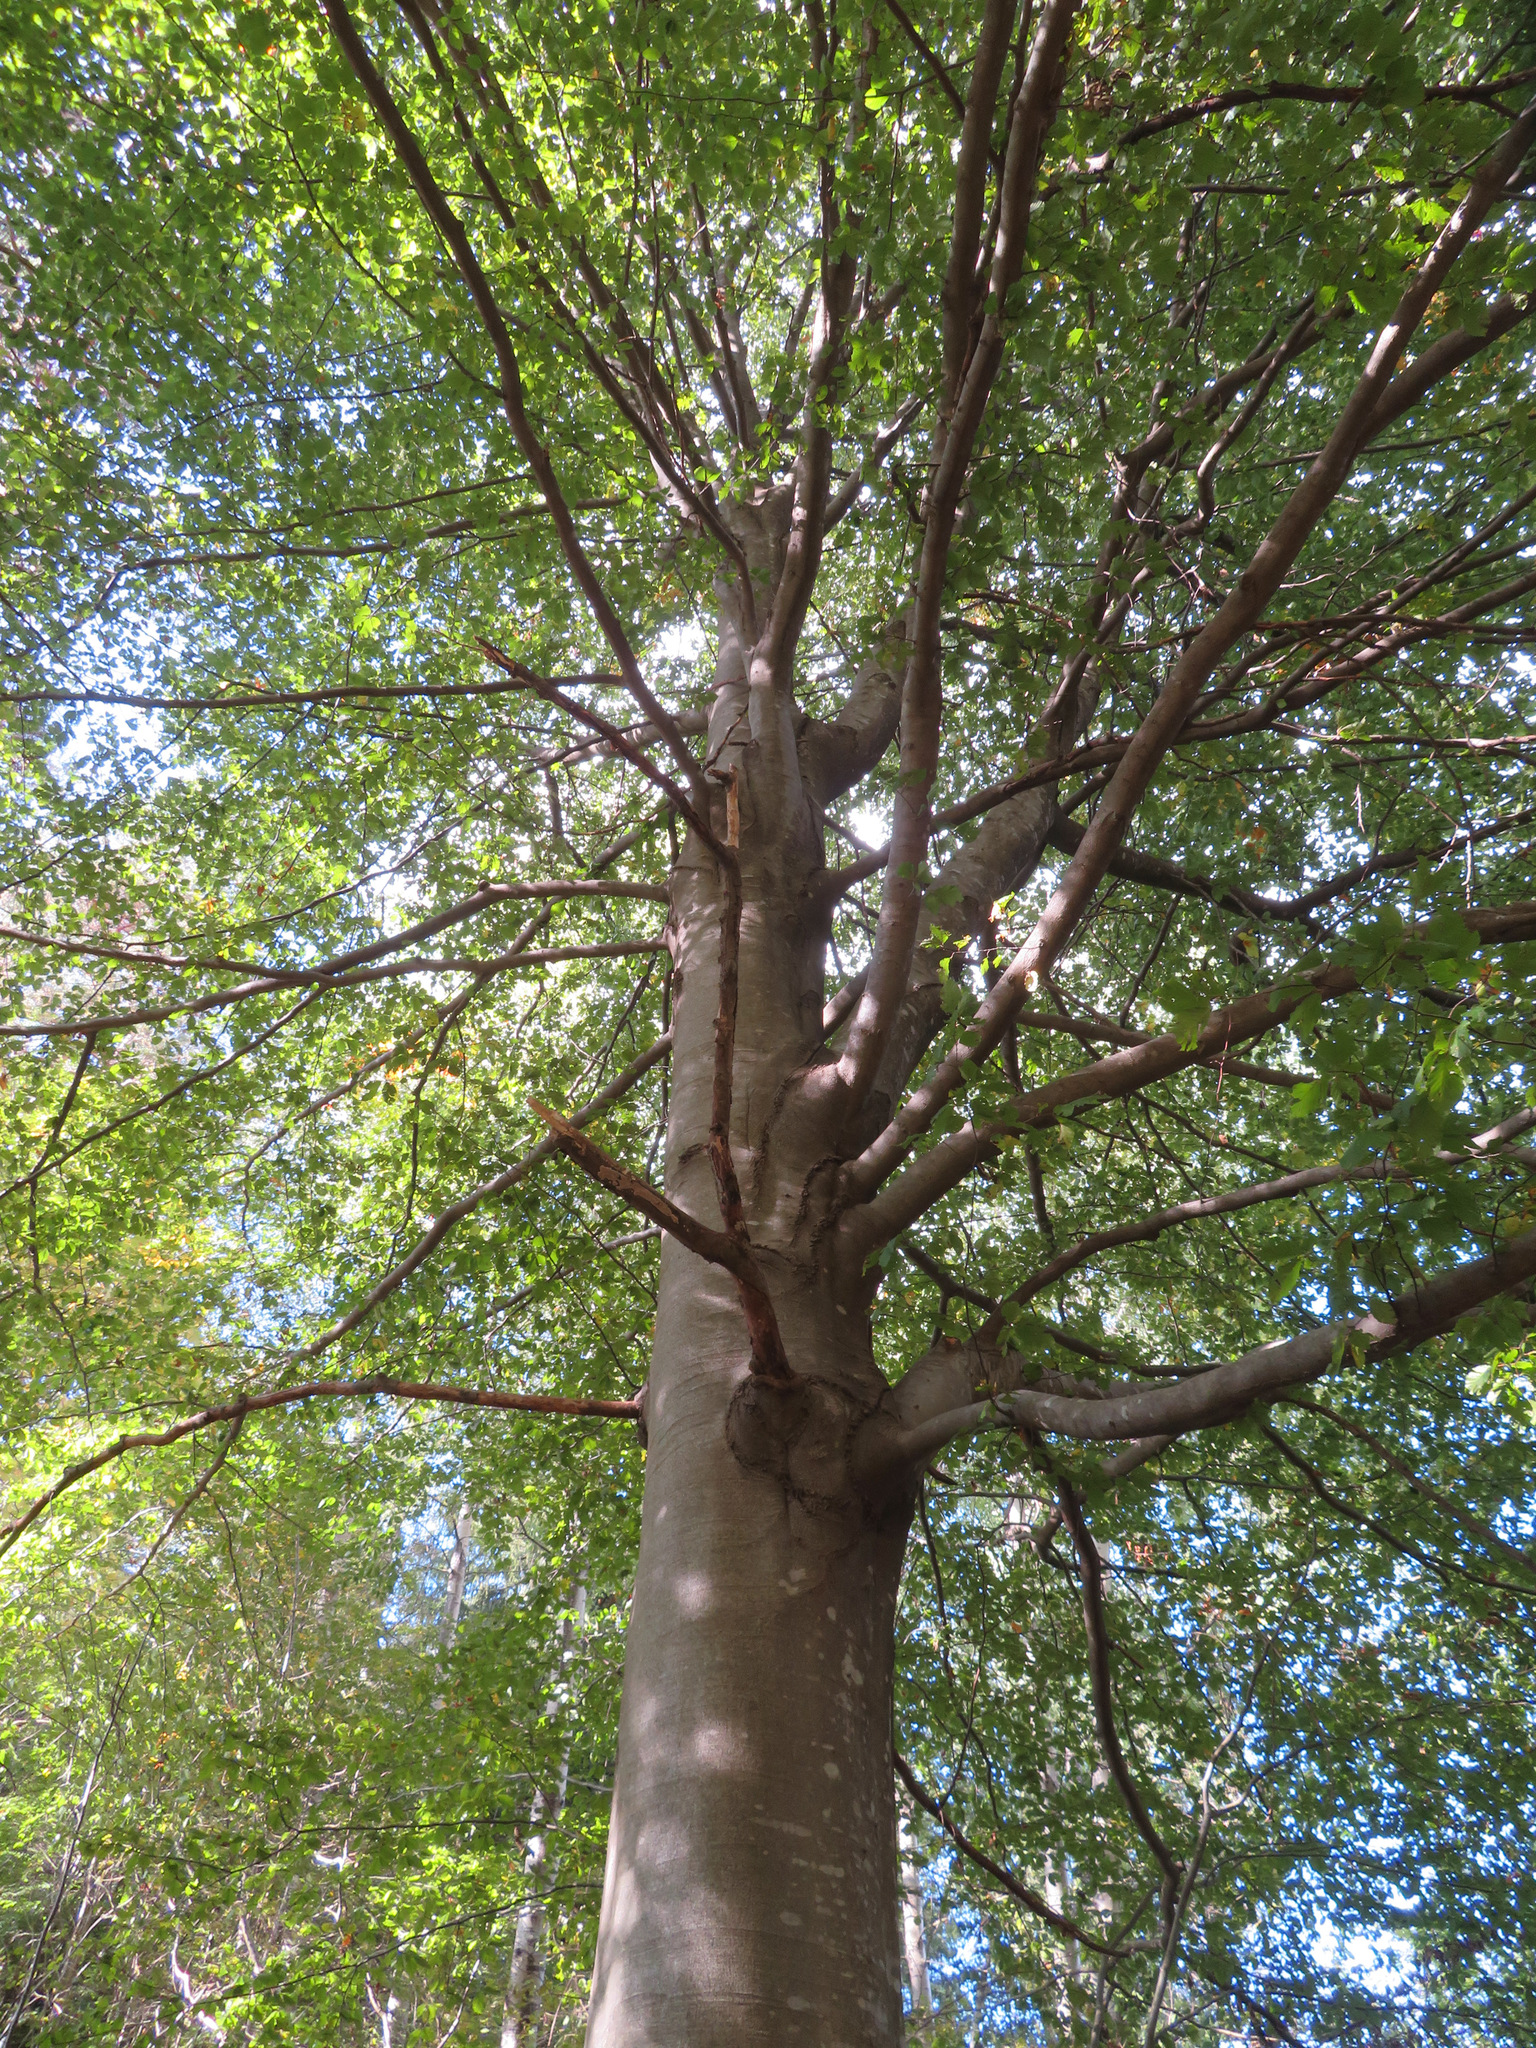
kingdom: Plantae
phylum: Tracheophyta
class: Magnoliopsida
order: Fagales
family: Fagaceae
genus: Fagus
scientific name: Fagus sylvatica
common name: Beech
